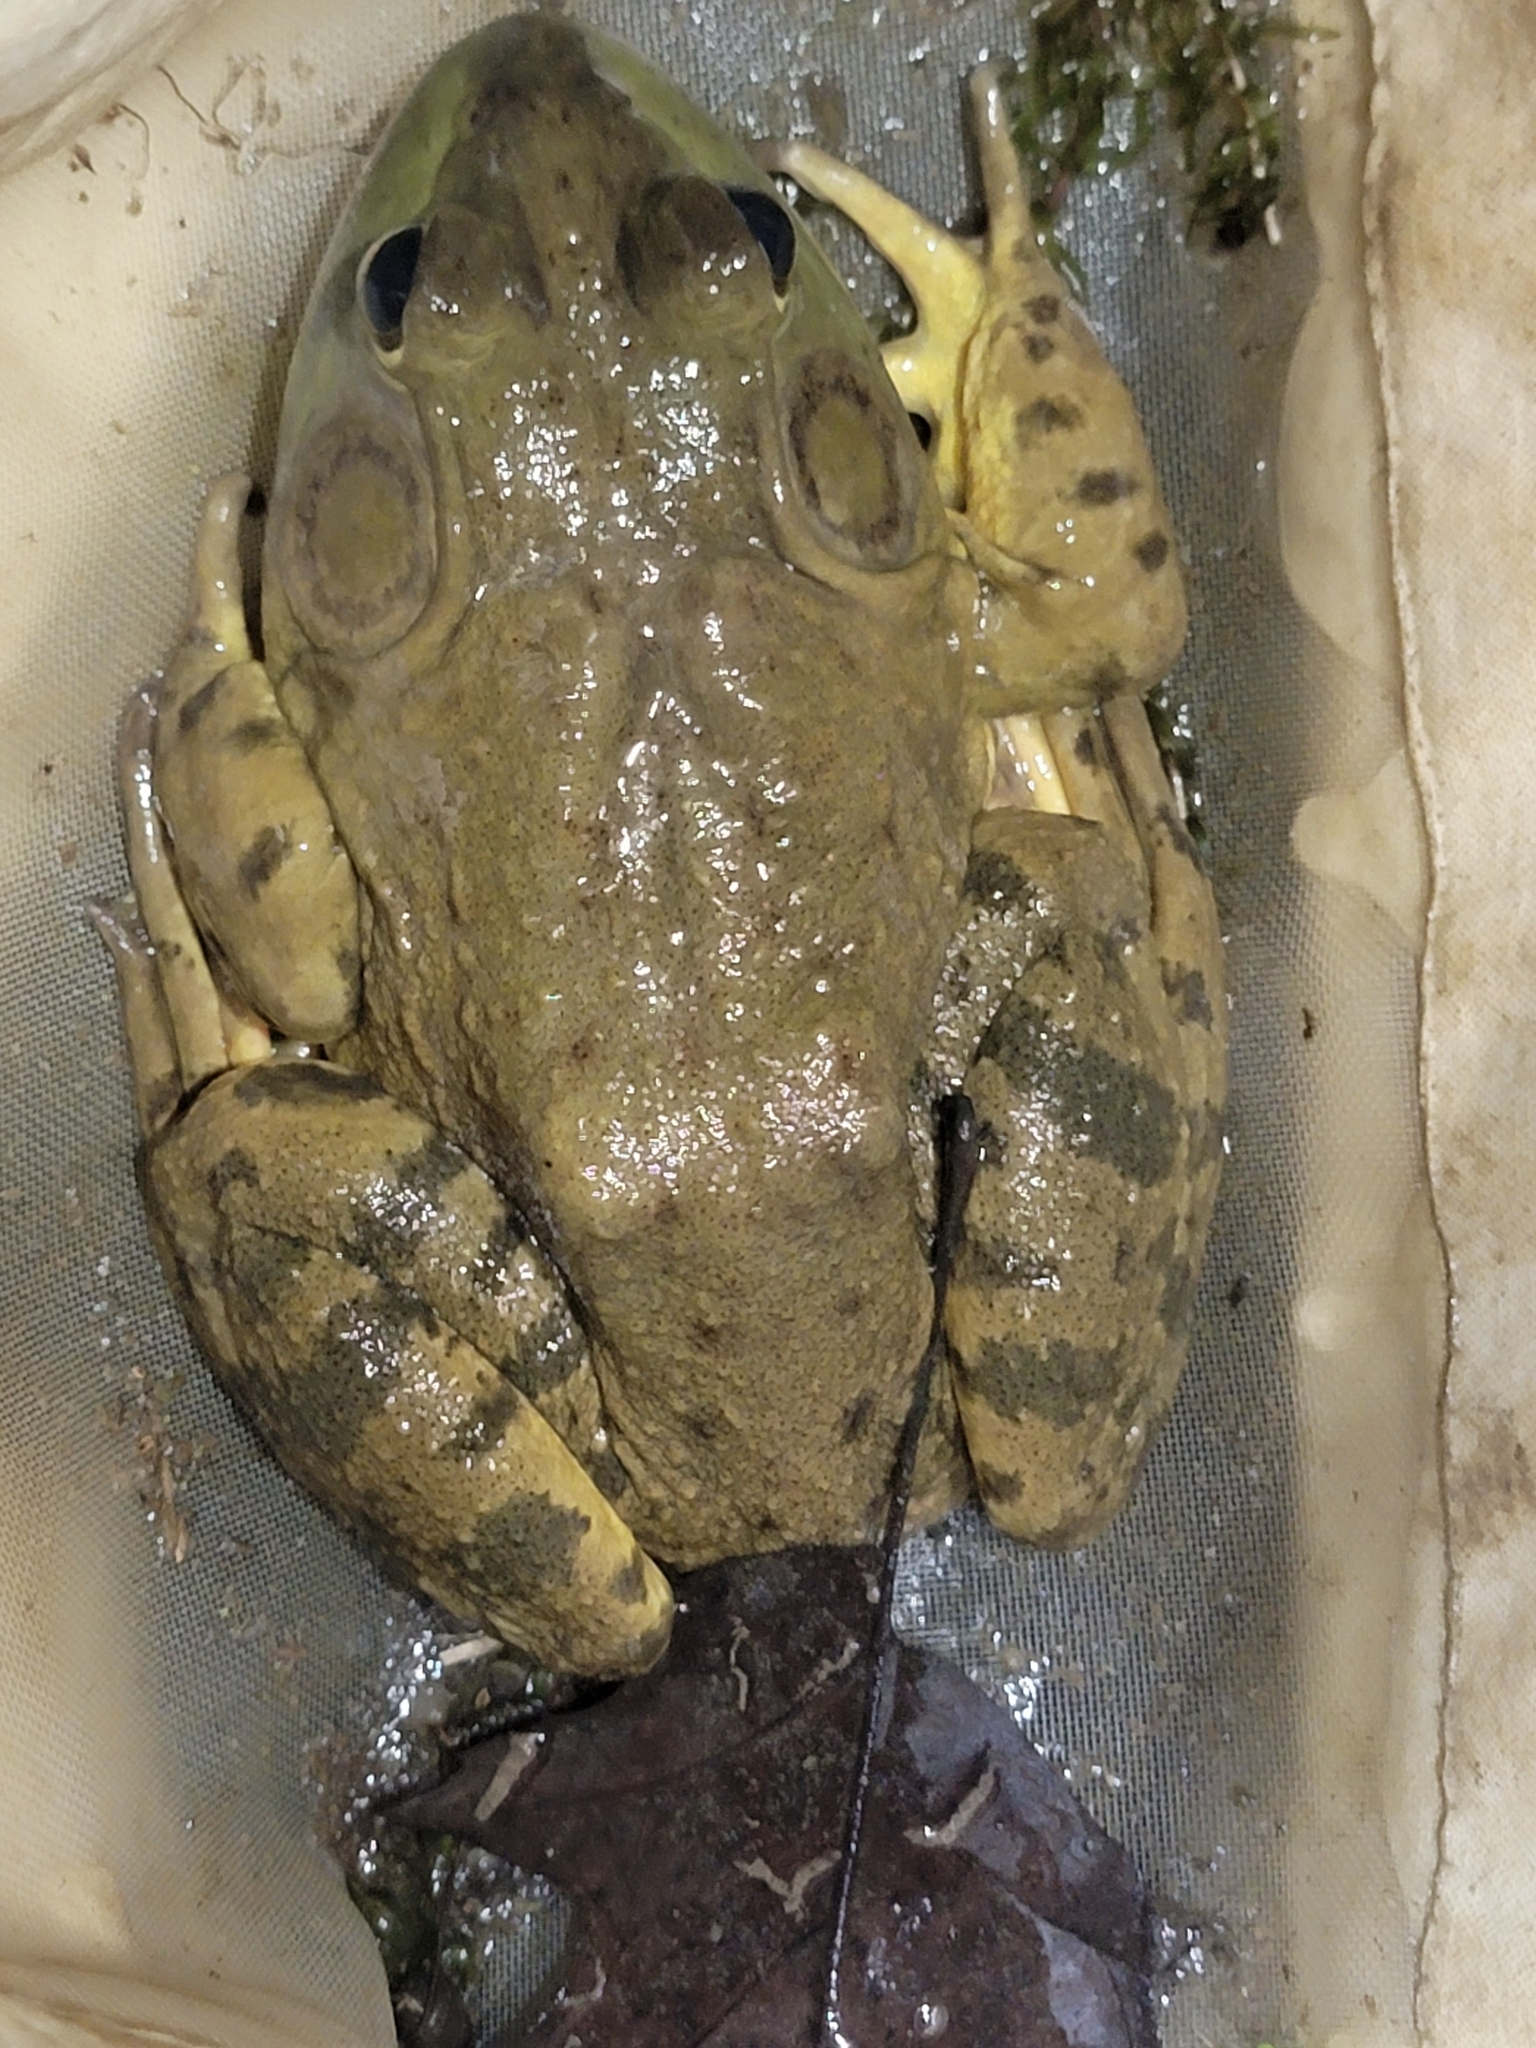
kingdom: Animalia
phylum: Chordata
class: Amphibia
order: Anura
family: Ranidae
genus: Lithobates
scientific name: Lithobates catesbeianus
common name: American bullfrog
